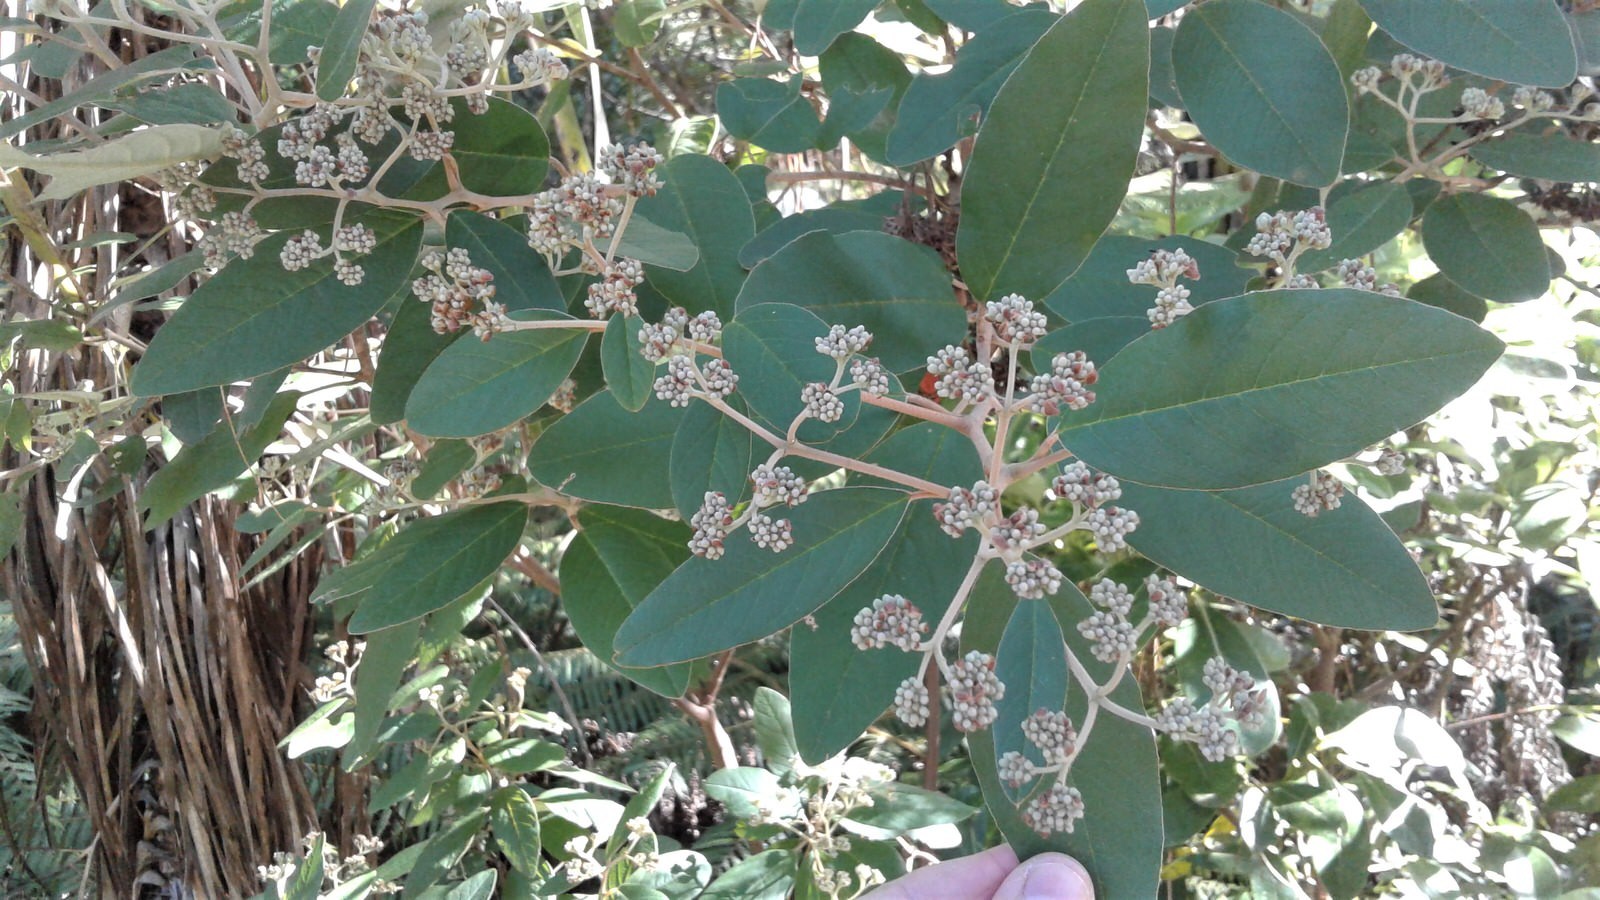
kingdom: Plantae
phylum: Tracheophyta
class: Magnoliopsida
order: Rosales
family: Rhamnaceae
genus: Pomaderris
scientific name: Pomaderris kumeraho
